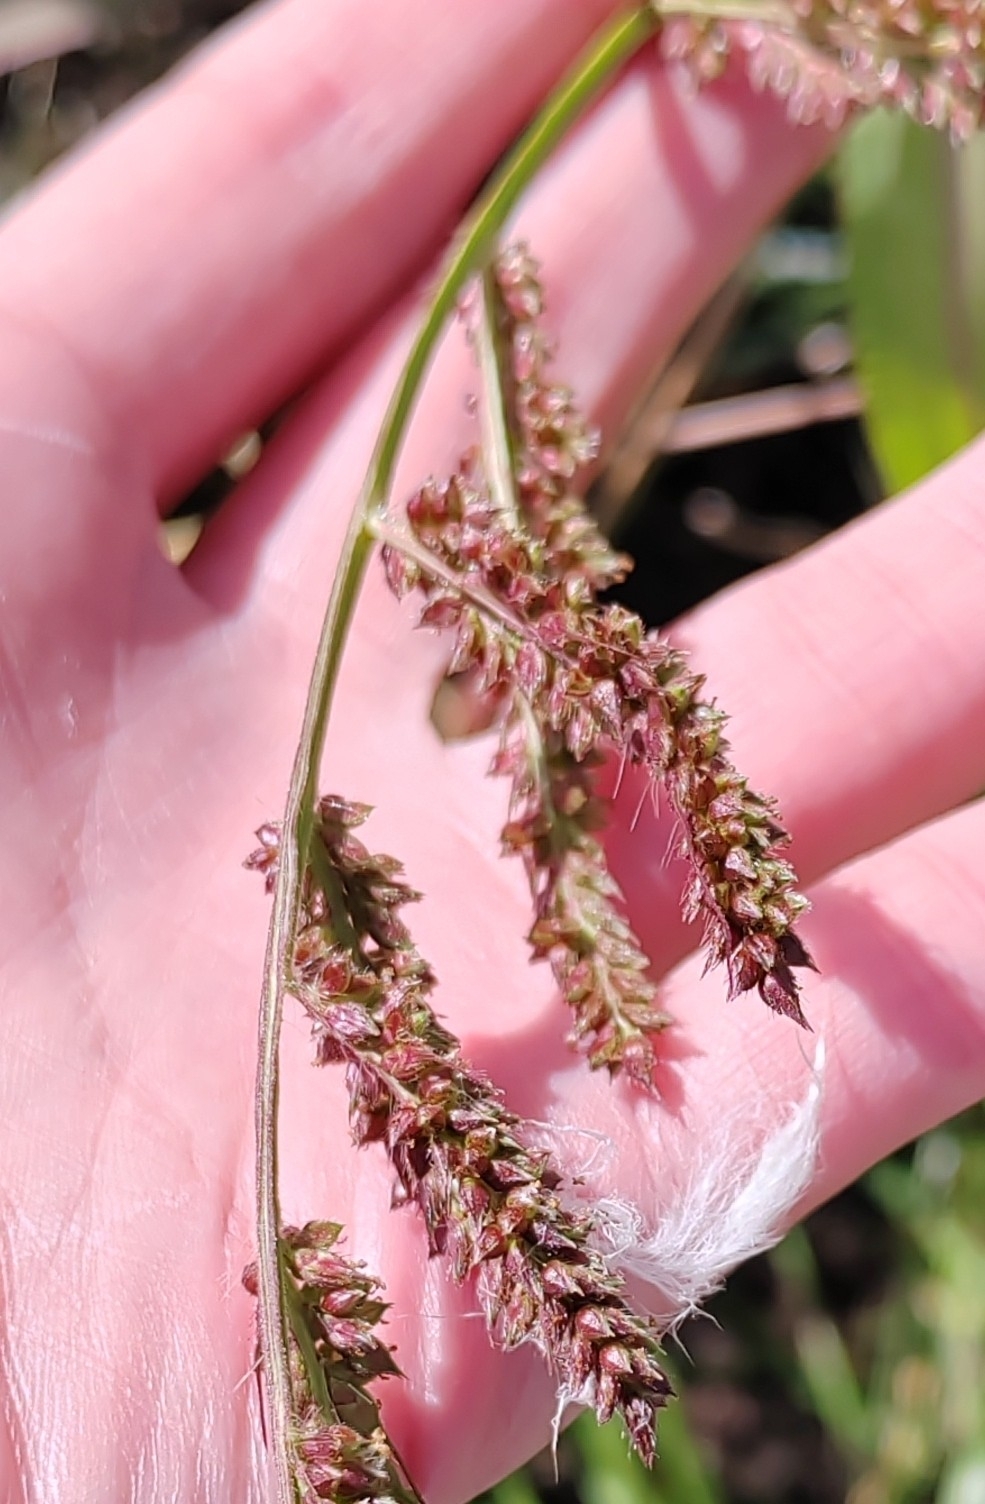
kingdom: Plantae
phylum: Tracheophyta
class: Liliopsida
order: Poales
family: Poaceae
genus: Echinochloa
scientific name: Echinochloa crus-galli
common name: Cockspur
